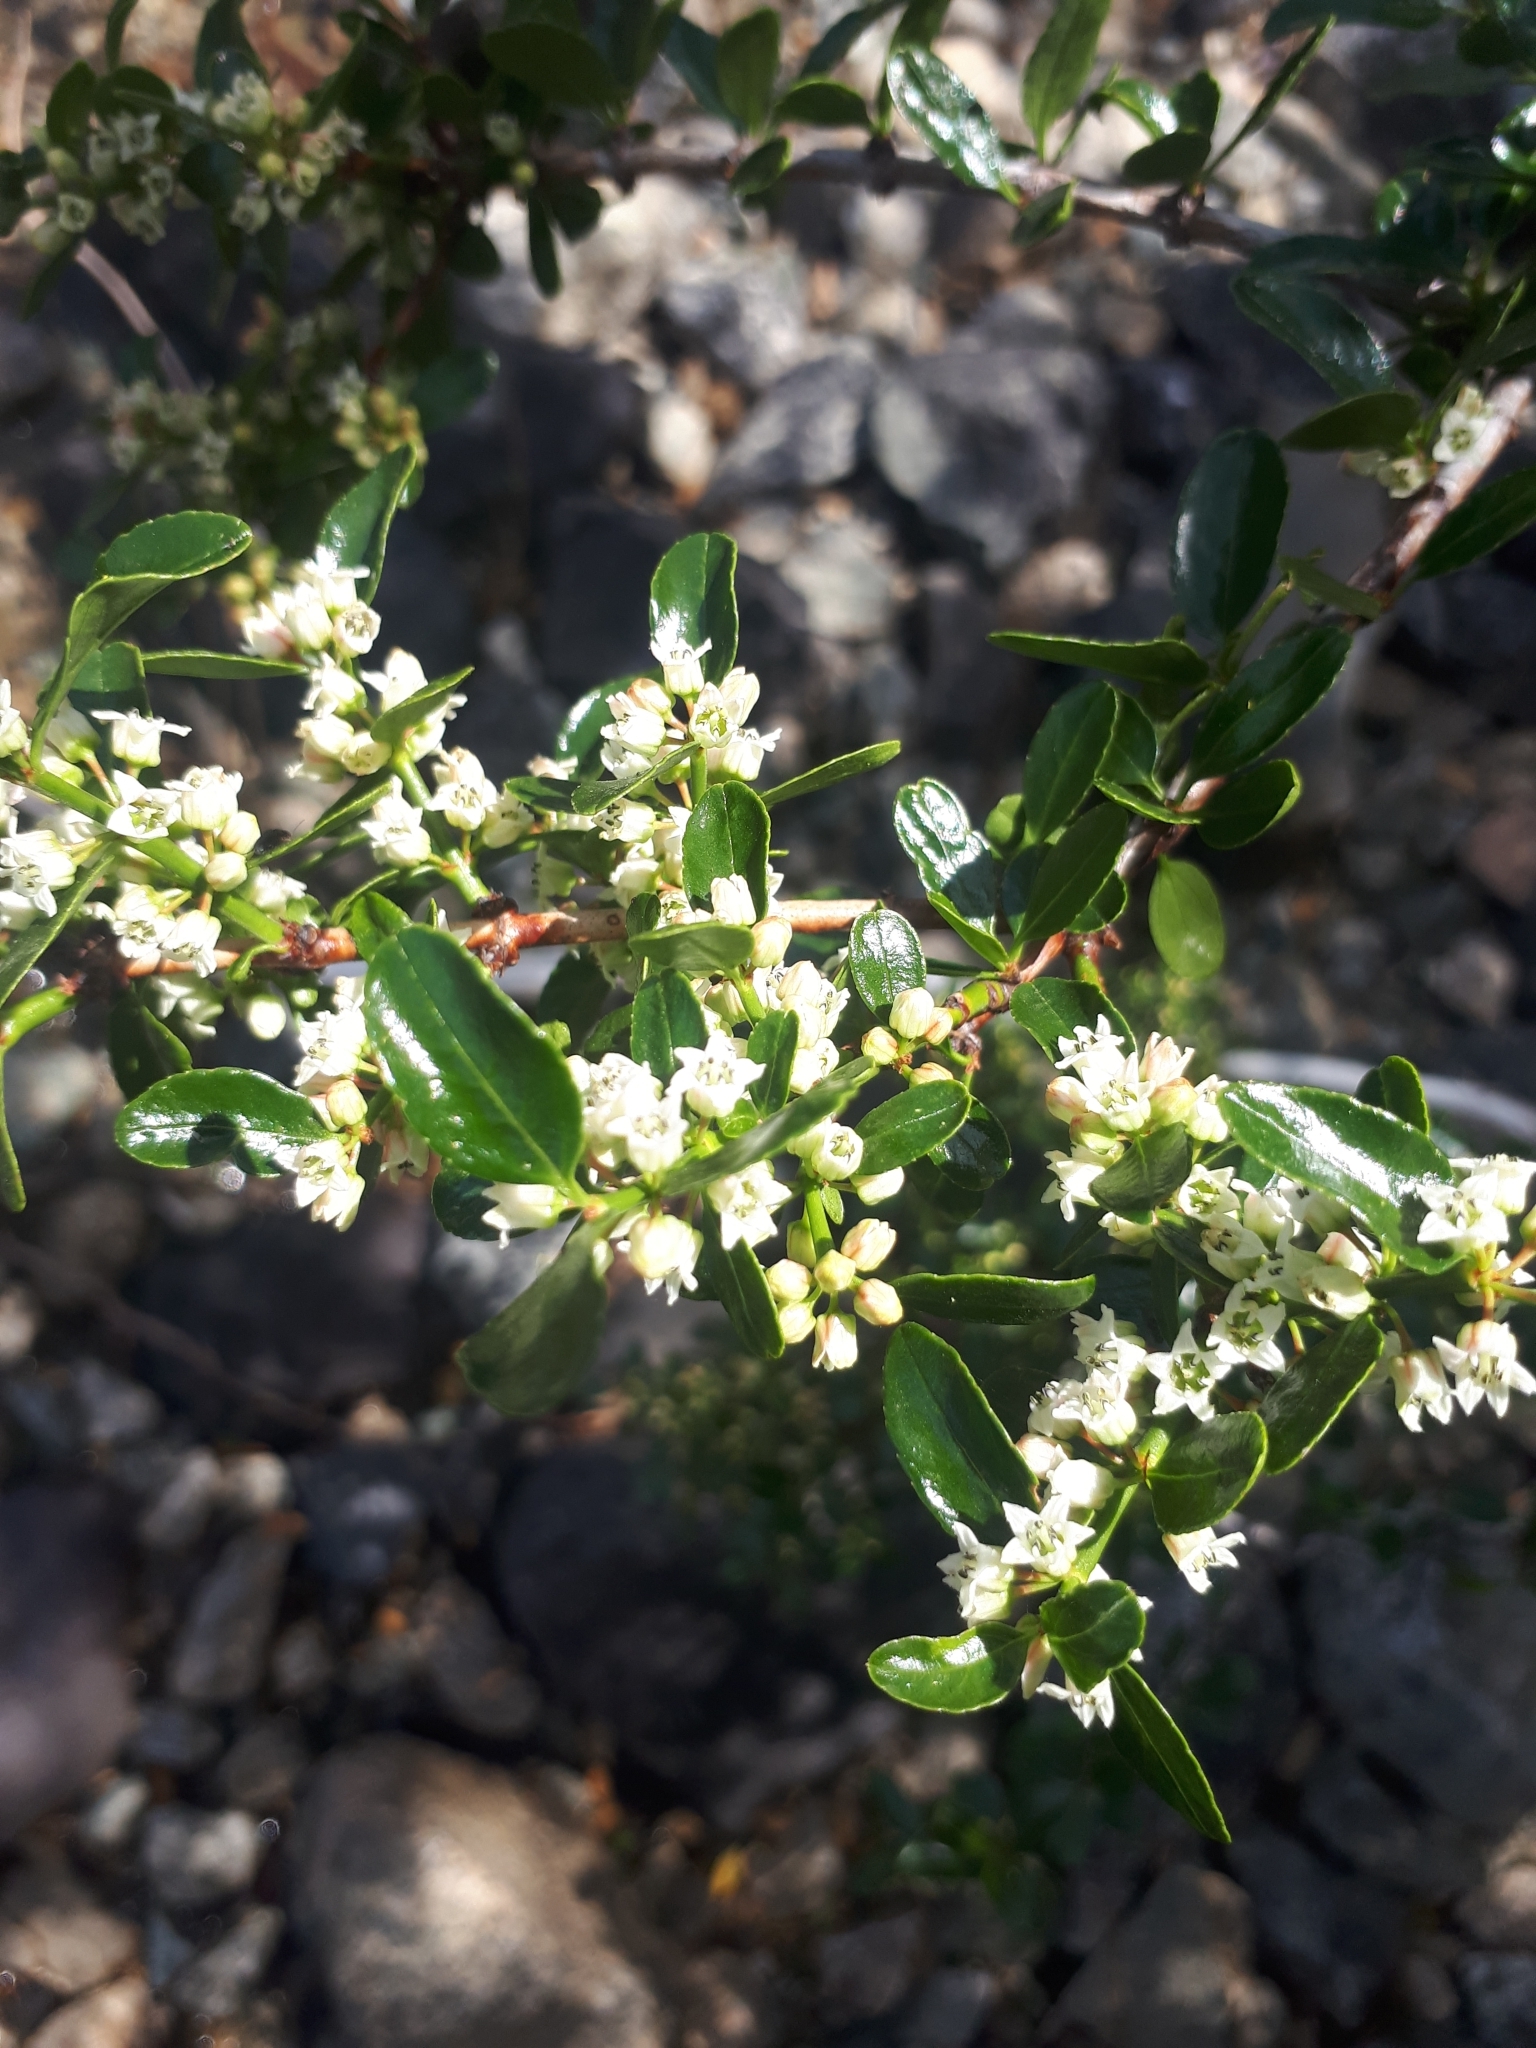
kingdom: Plantae
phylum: Tracheophyta
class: Magnoliopsida
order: Rosales
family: Rhamnaceae
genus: Discaria
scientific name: Discaria chacaye
